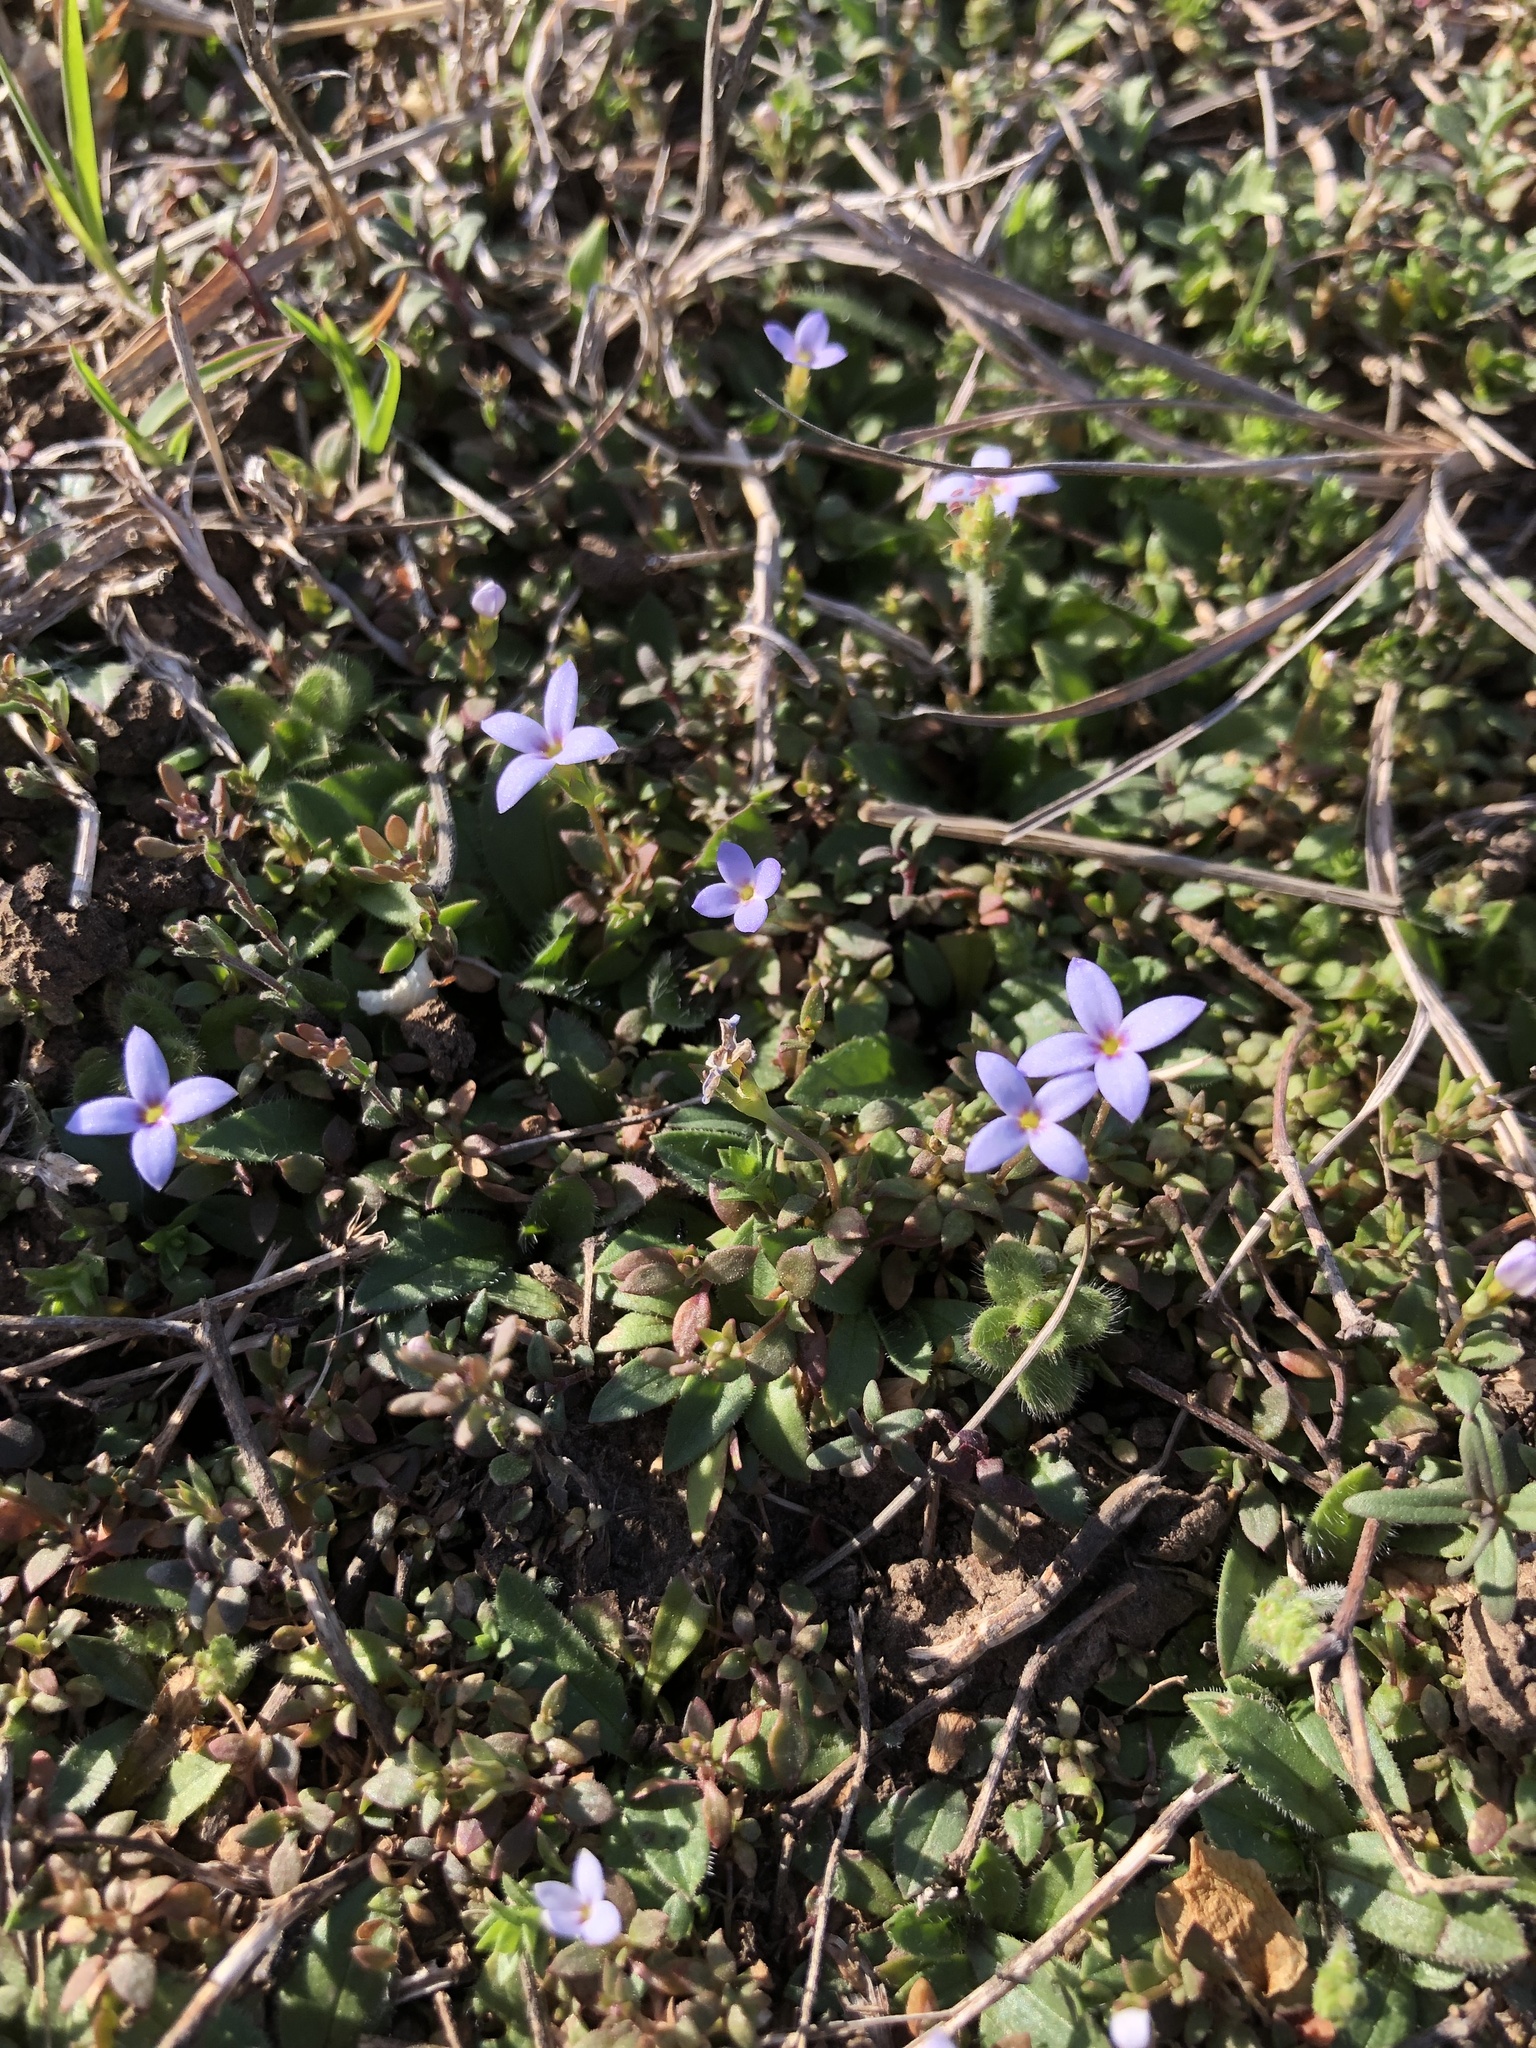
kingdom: Plantae
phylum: Tracheophyta
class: Magnoliopsida
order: Gentianales
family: Rubiaceae
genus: Houstonia
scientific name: Houstonia pusilla
